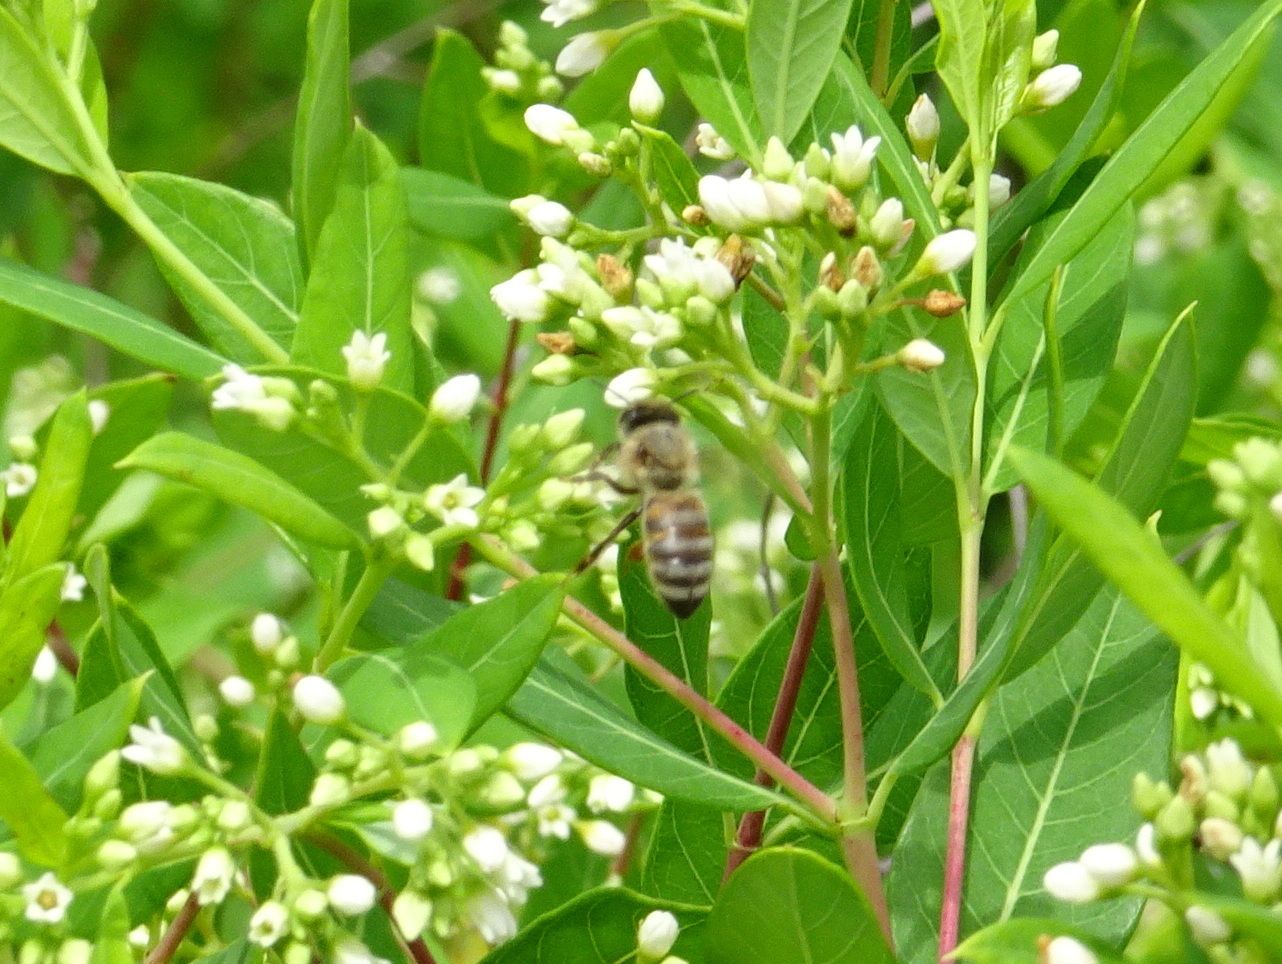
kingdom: Animalia
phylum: Arthropoda
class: Insecta
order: Hymenoptera
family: Apidae
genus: Apis
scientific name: Apis mellifera
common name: Honey bee
